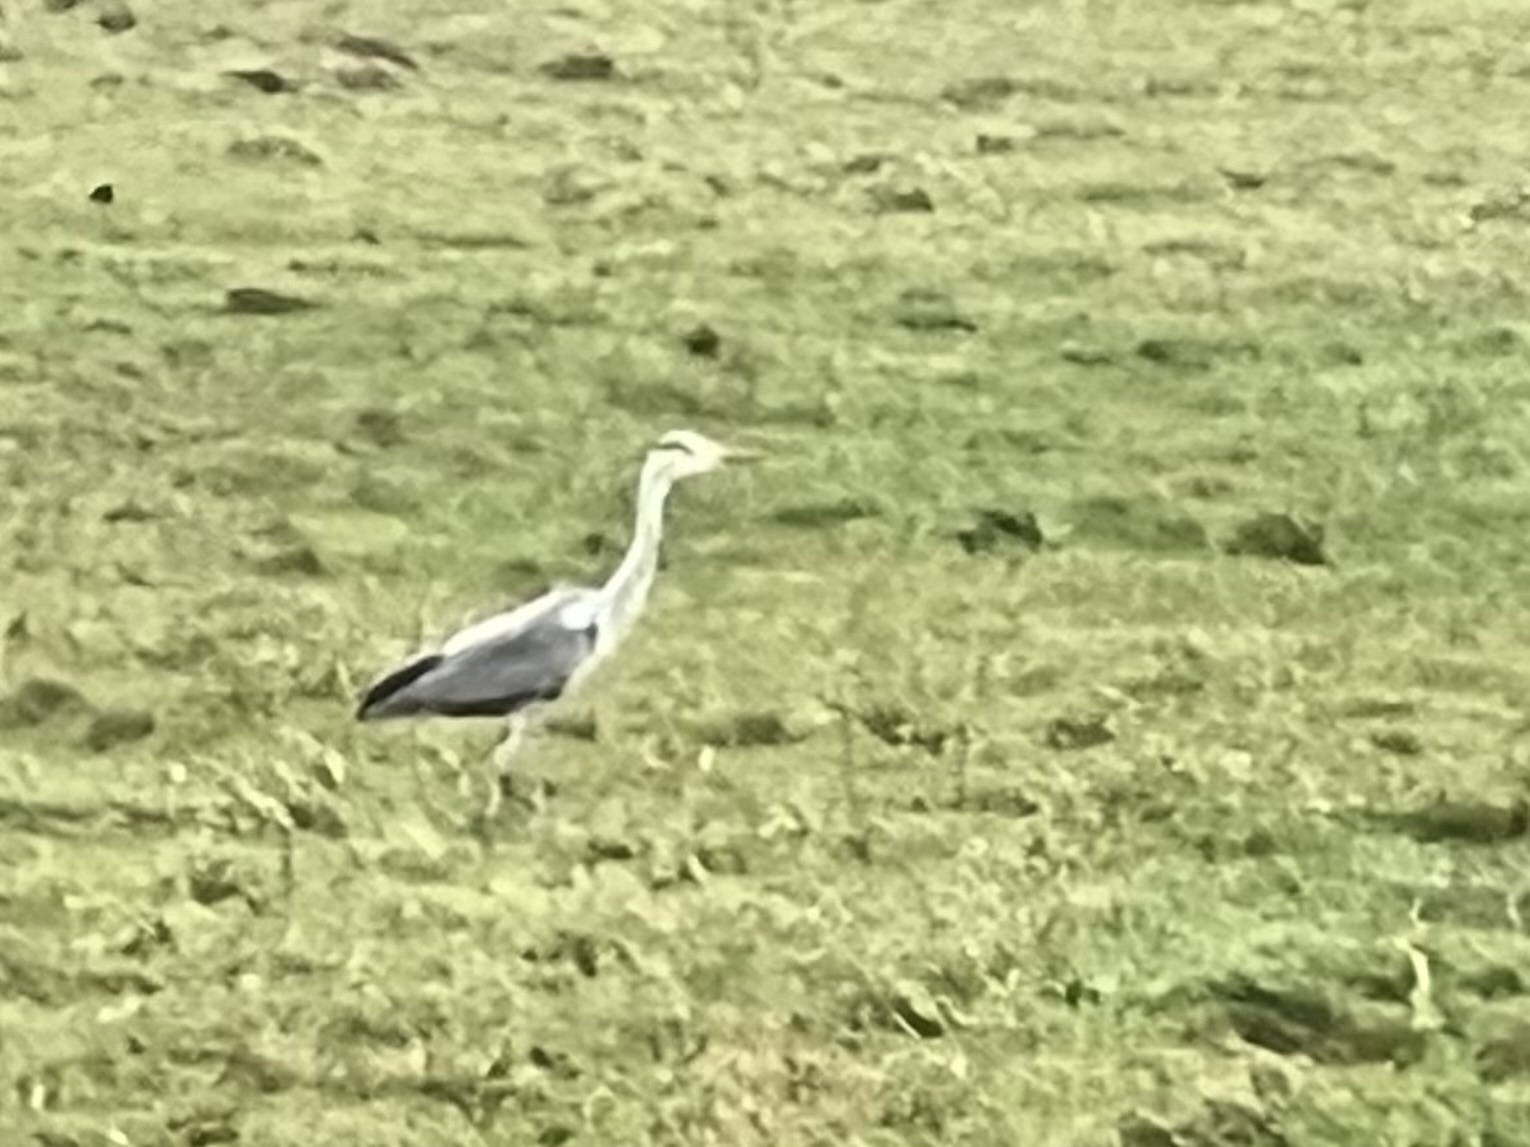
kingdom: Animalia
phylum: Chordata
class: Aves
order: Pelecaniformes
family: Ardeidae
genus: Ardea
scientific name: Ardea cinerea
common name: Grey heron
